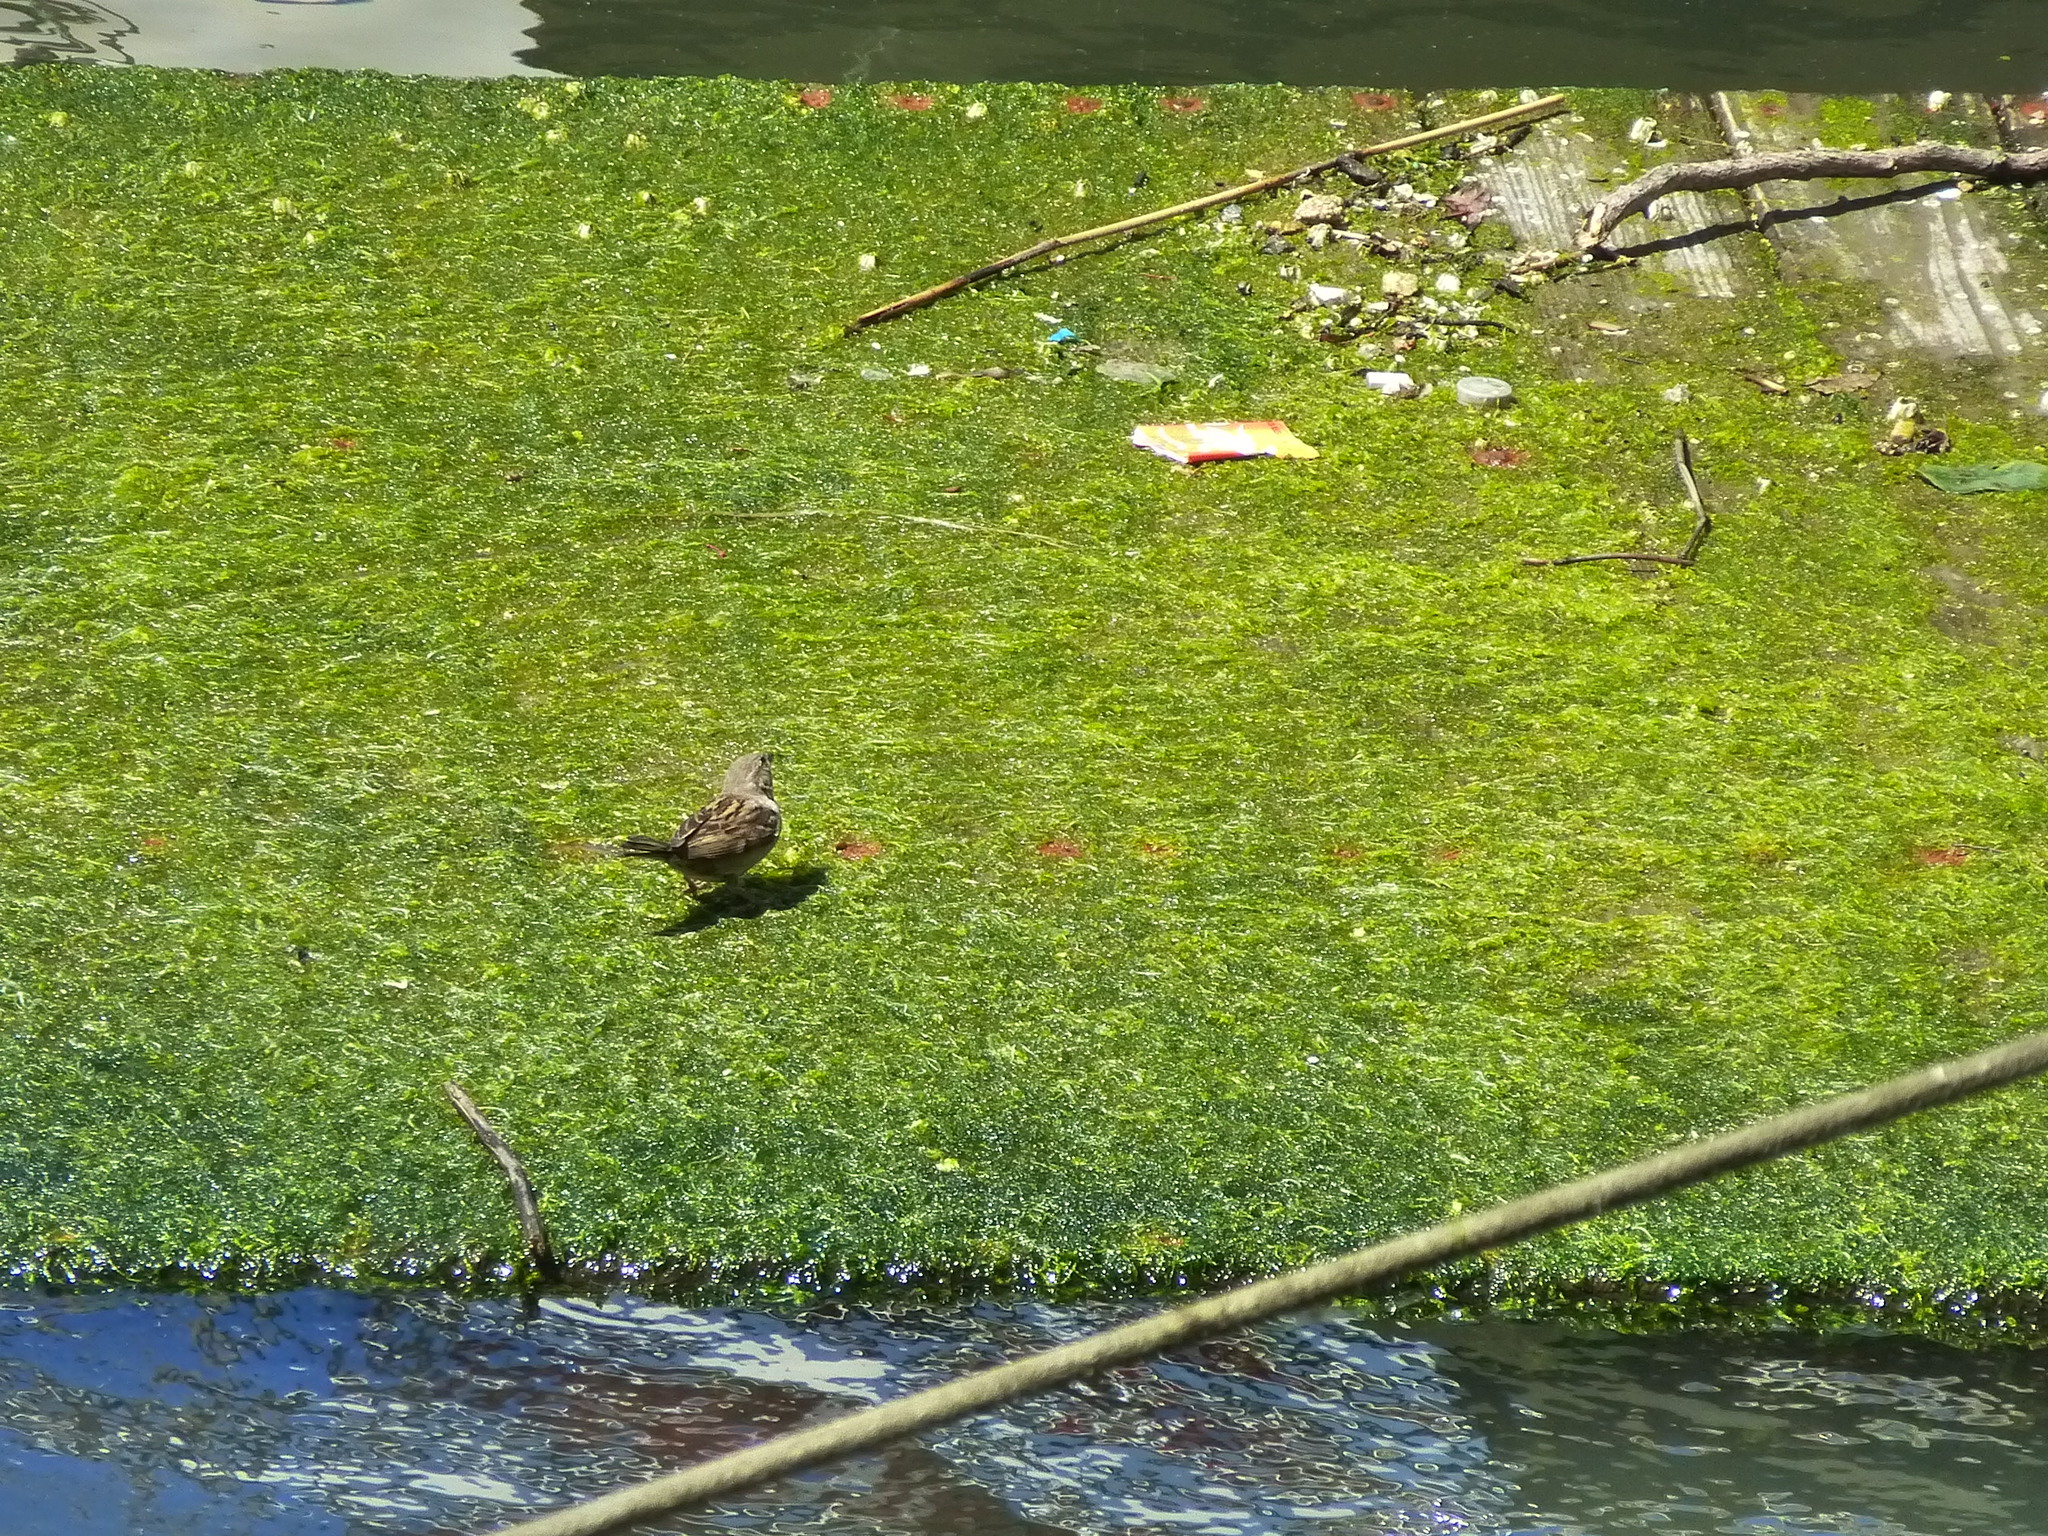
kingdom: Animalia
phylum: Chordata
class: Aves
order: Passeriformes
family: Passeridae
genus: Passer
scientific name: Passer domesticus
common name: House sparrow
